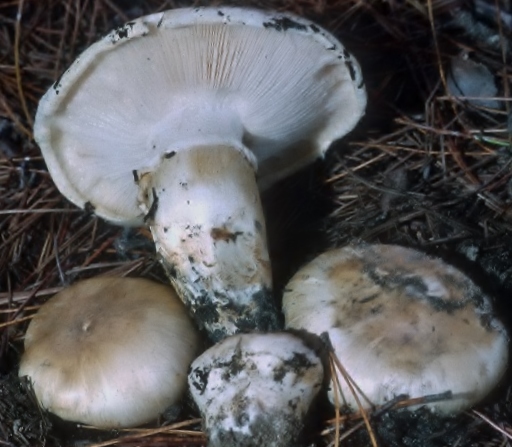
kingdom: Fungi
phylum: Basidiomycota
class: Agaricomycetes
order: Agaricales
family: Tricholomataceae
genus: Tricholoma
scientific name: Tricholoma magnivelare
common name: American matsutake
